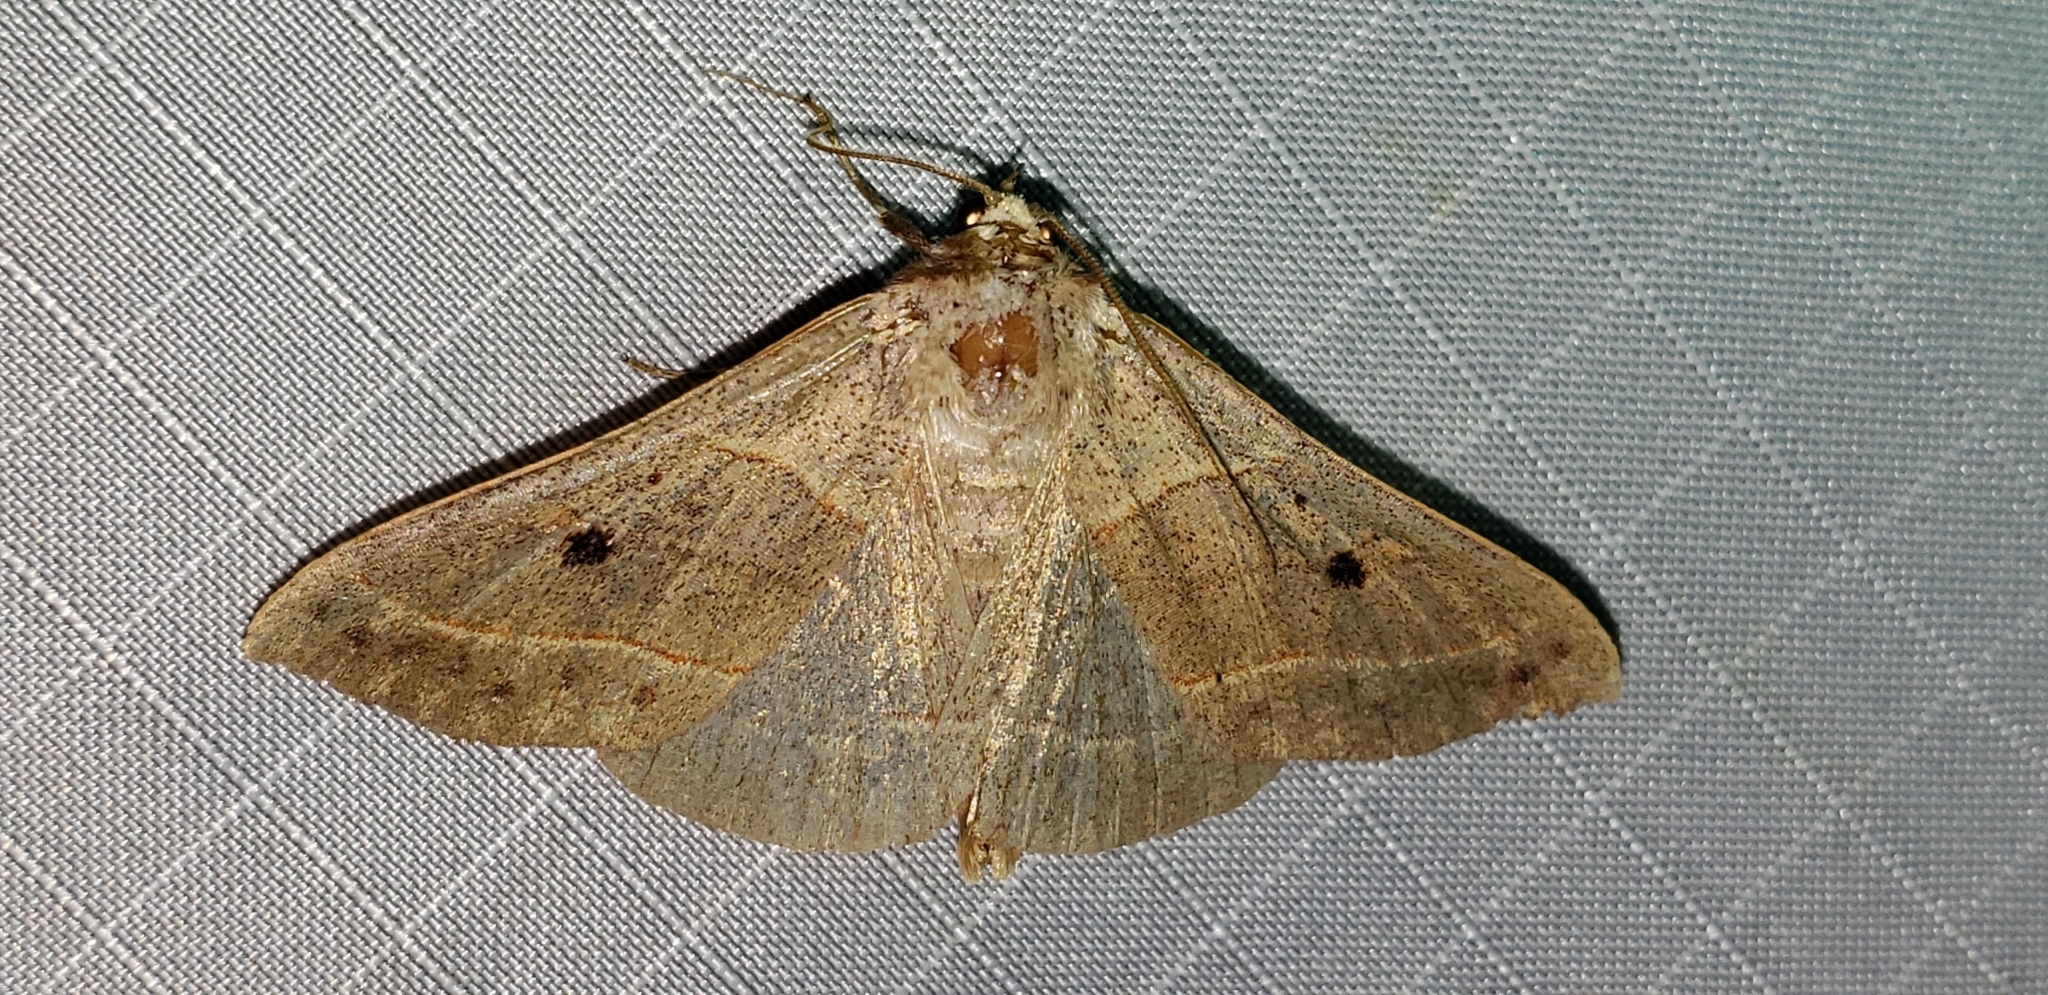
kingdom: Animalia
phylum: Arthropoda
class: Insecta
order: Lepidoptera
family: Erebidae
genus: Panopoda
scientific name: Panopoda rufimargo
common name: Red-lined panopoda moth
